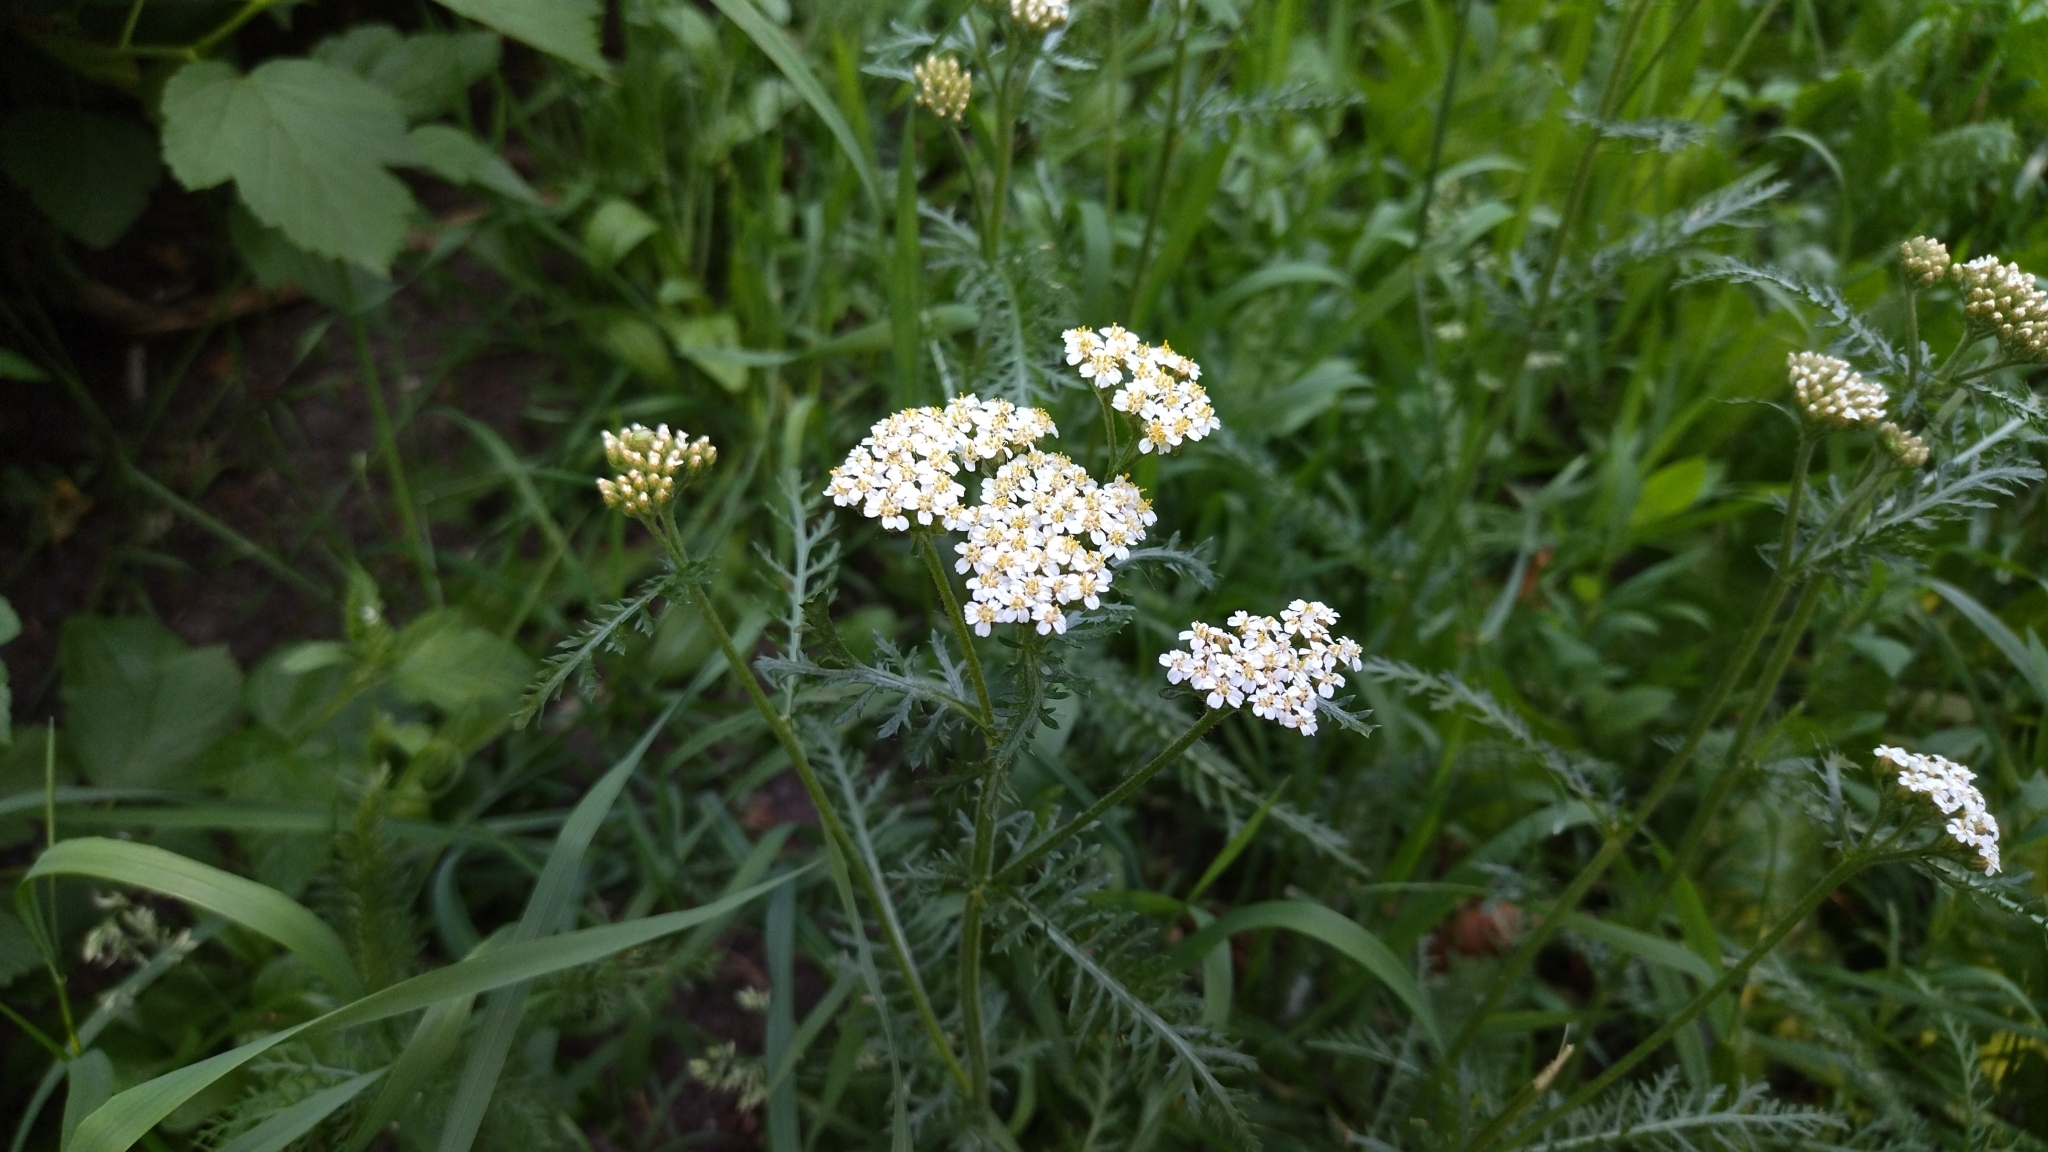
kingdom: Plantae
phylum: Tracheophyta
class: Magnoliopsida
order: Asterales
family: Asteraceae
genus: Achillea
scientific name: Achillea millefolium
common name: Yarrow
